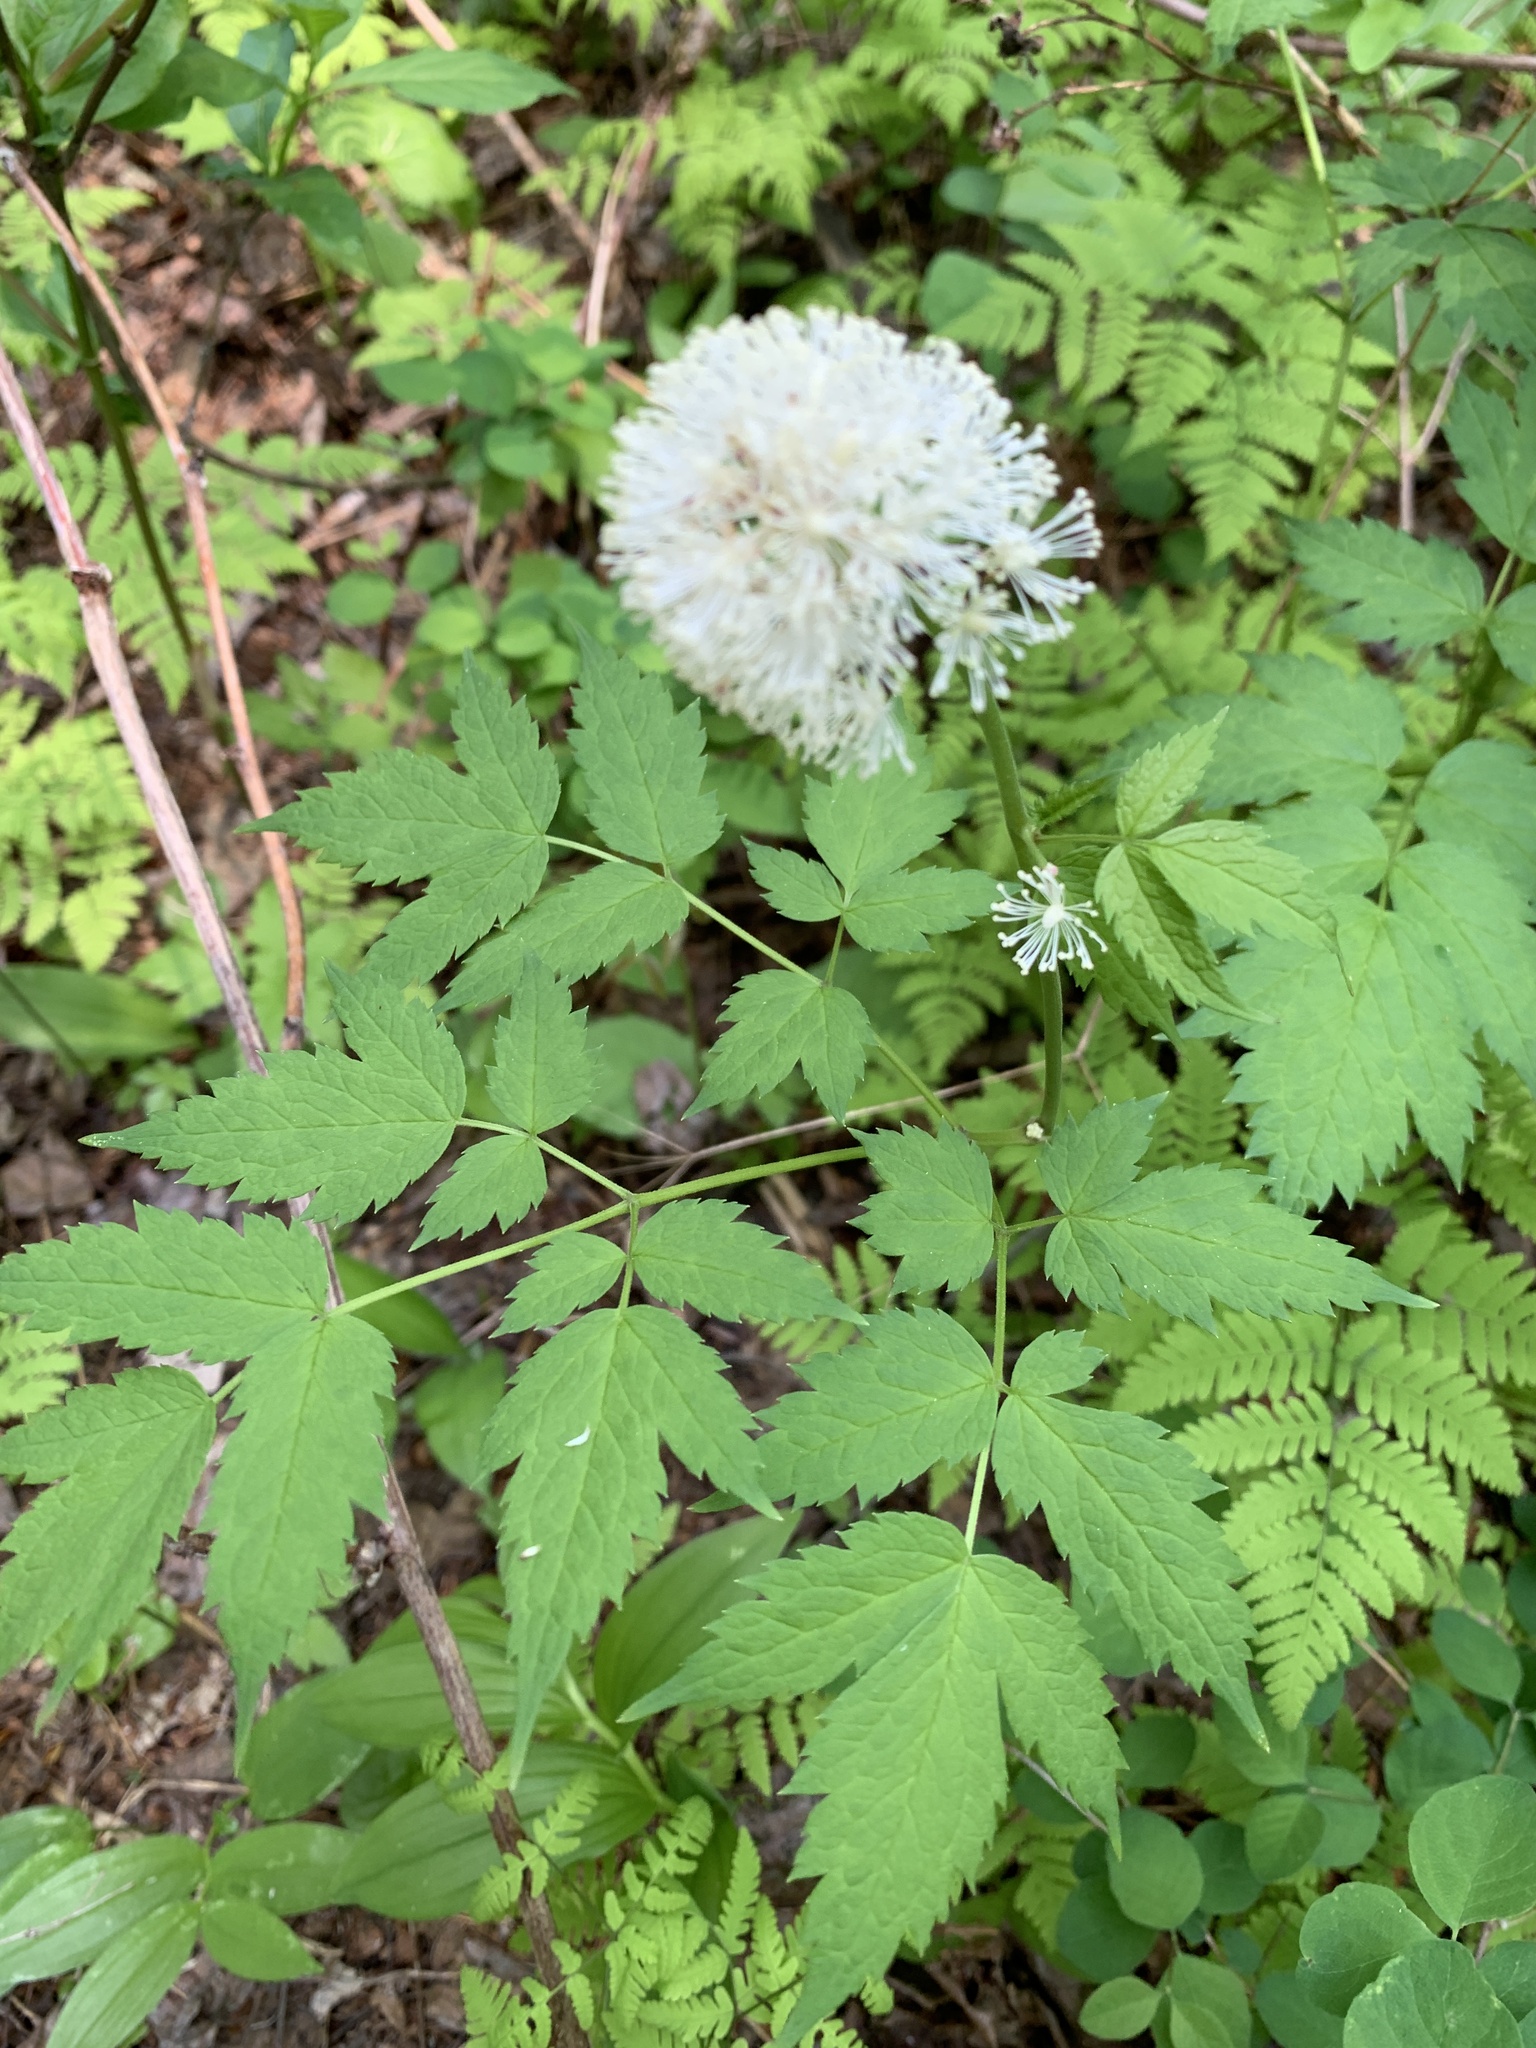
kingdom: Plantae
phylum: Tracheophyta
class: Magnoliopsida
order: Ranunculales
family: Ranunculaceae
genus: Actaea
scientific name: Actaea rubra
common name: Red baneberry
